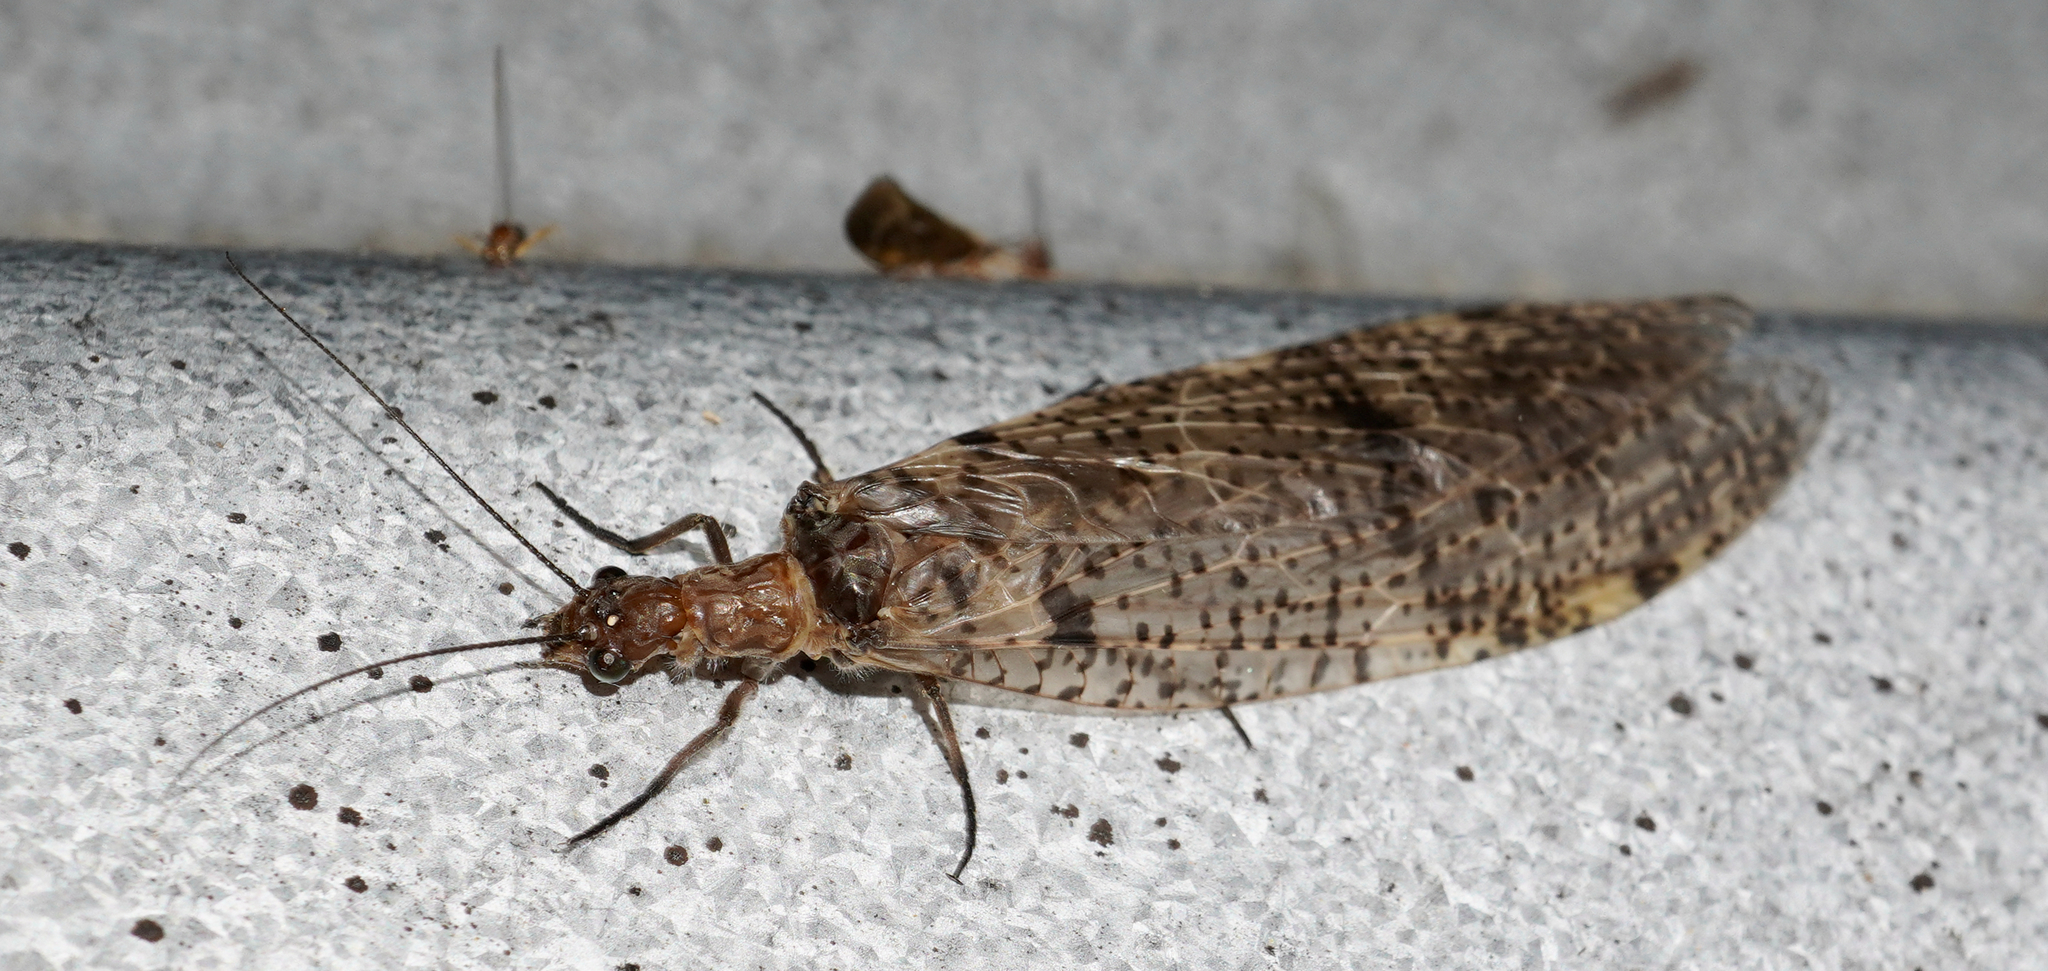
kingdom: Animalia
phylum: Arthropoda
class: Insecta
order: Megaloptera
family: Corydalidae
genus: Archichauliodes
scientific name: Archichauliodes diversus
